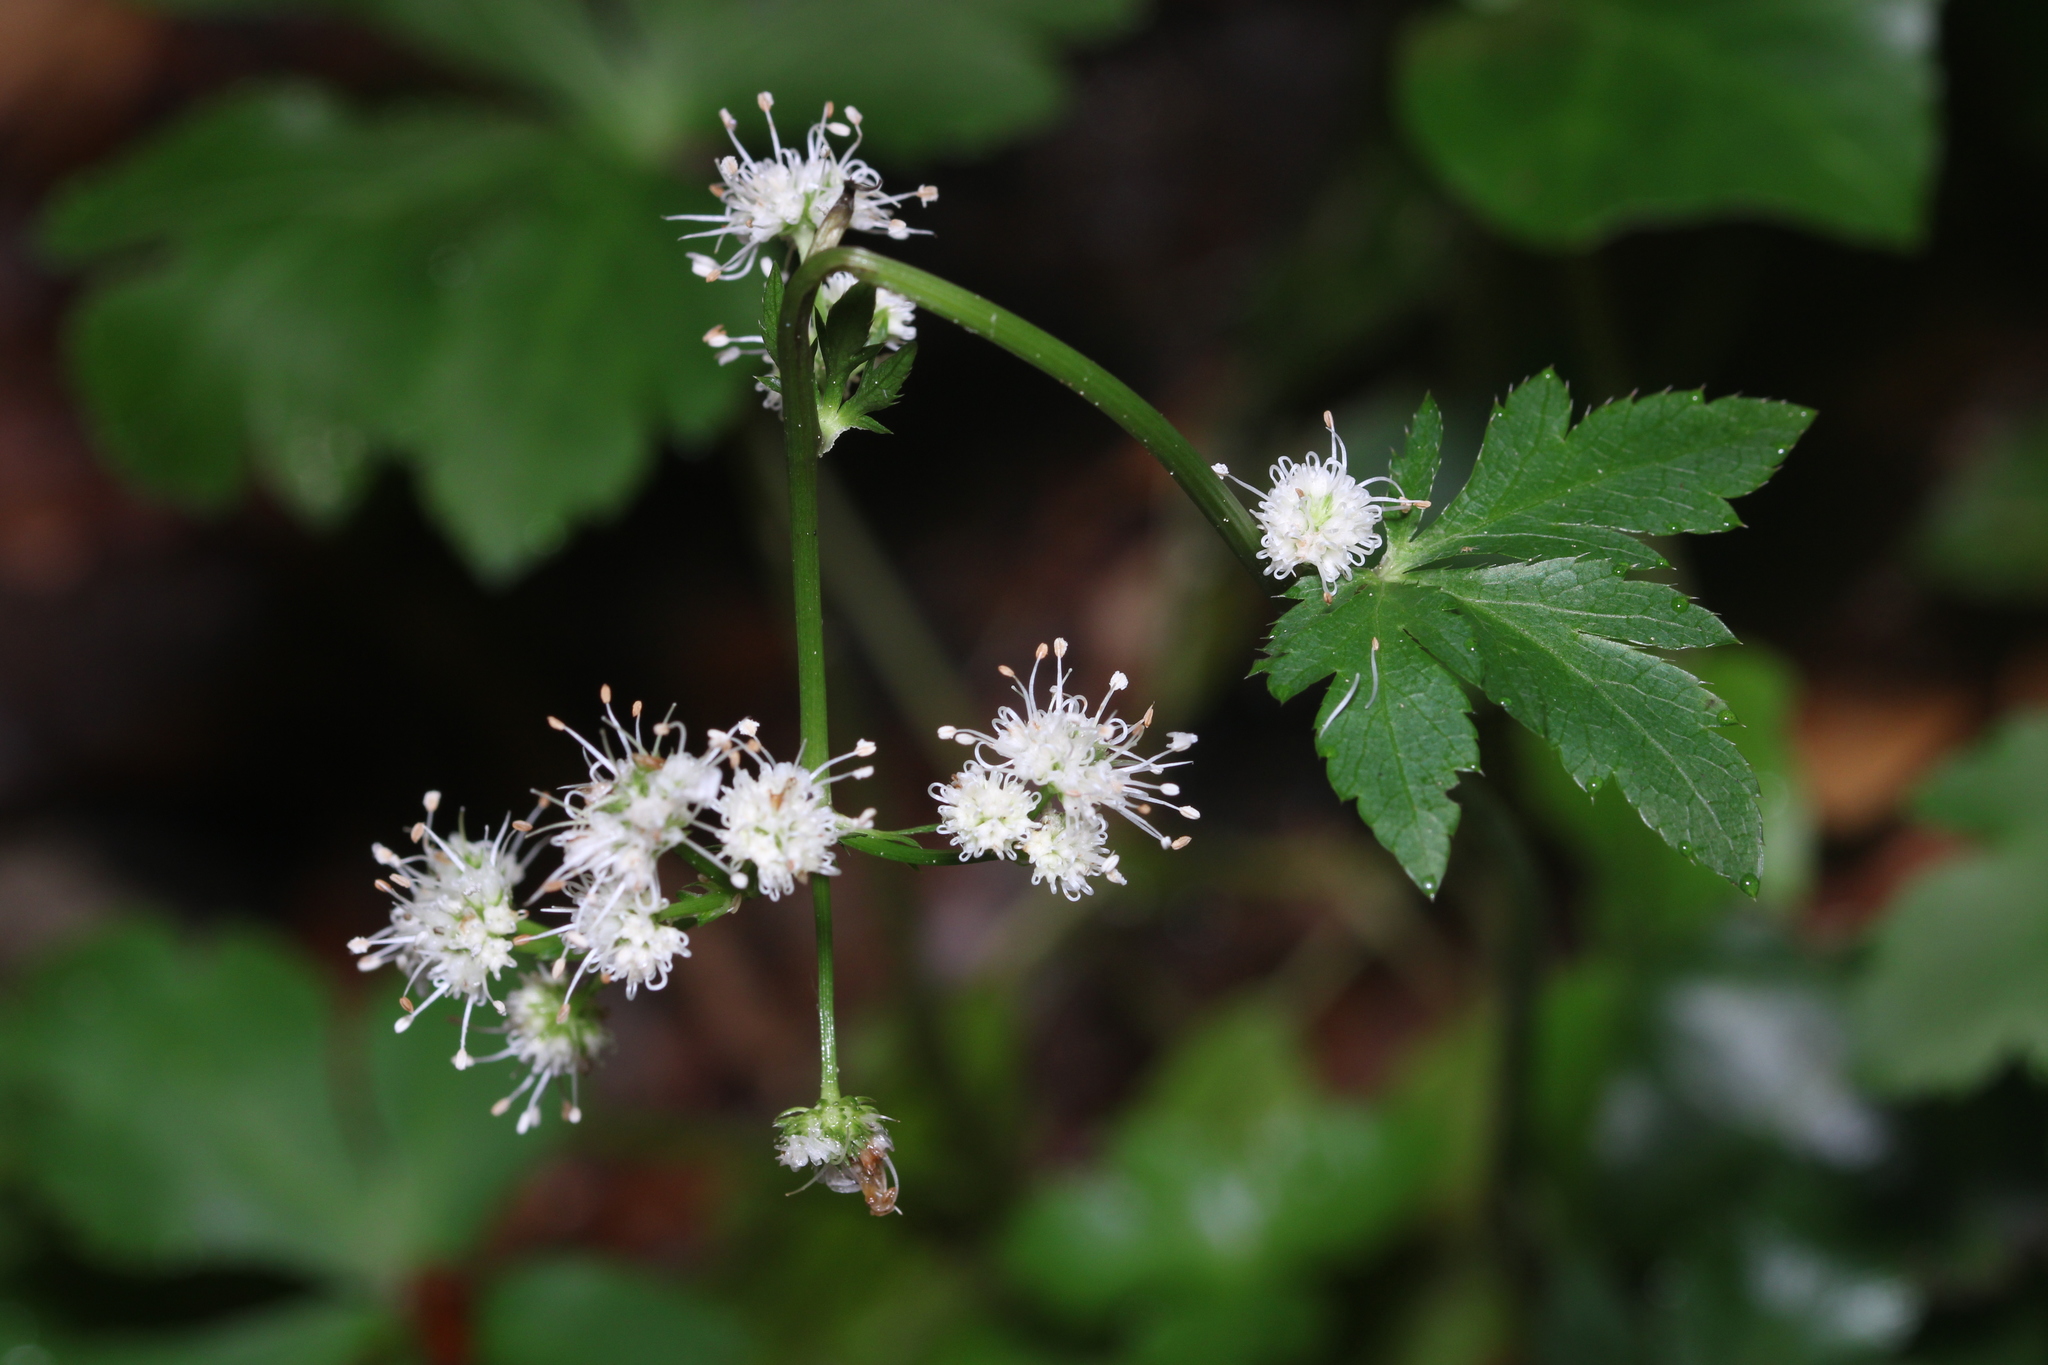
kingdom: Plantae
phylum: Tracheophyta
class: Magnoliopsida
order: Apiales
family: Apiaceae
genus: Sanicula
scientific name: Sanicula europaea
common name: Sanicle
